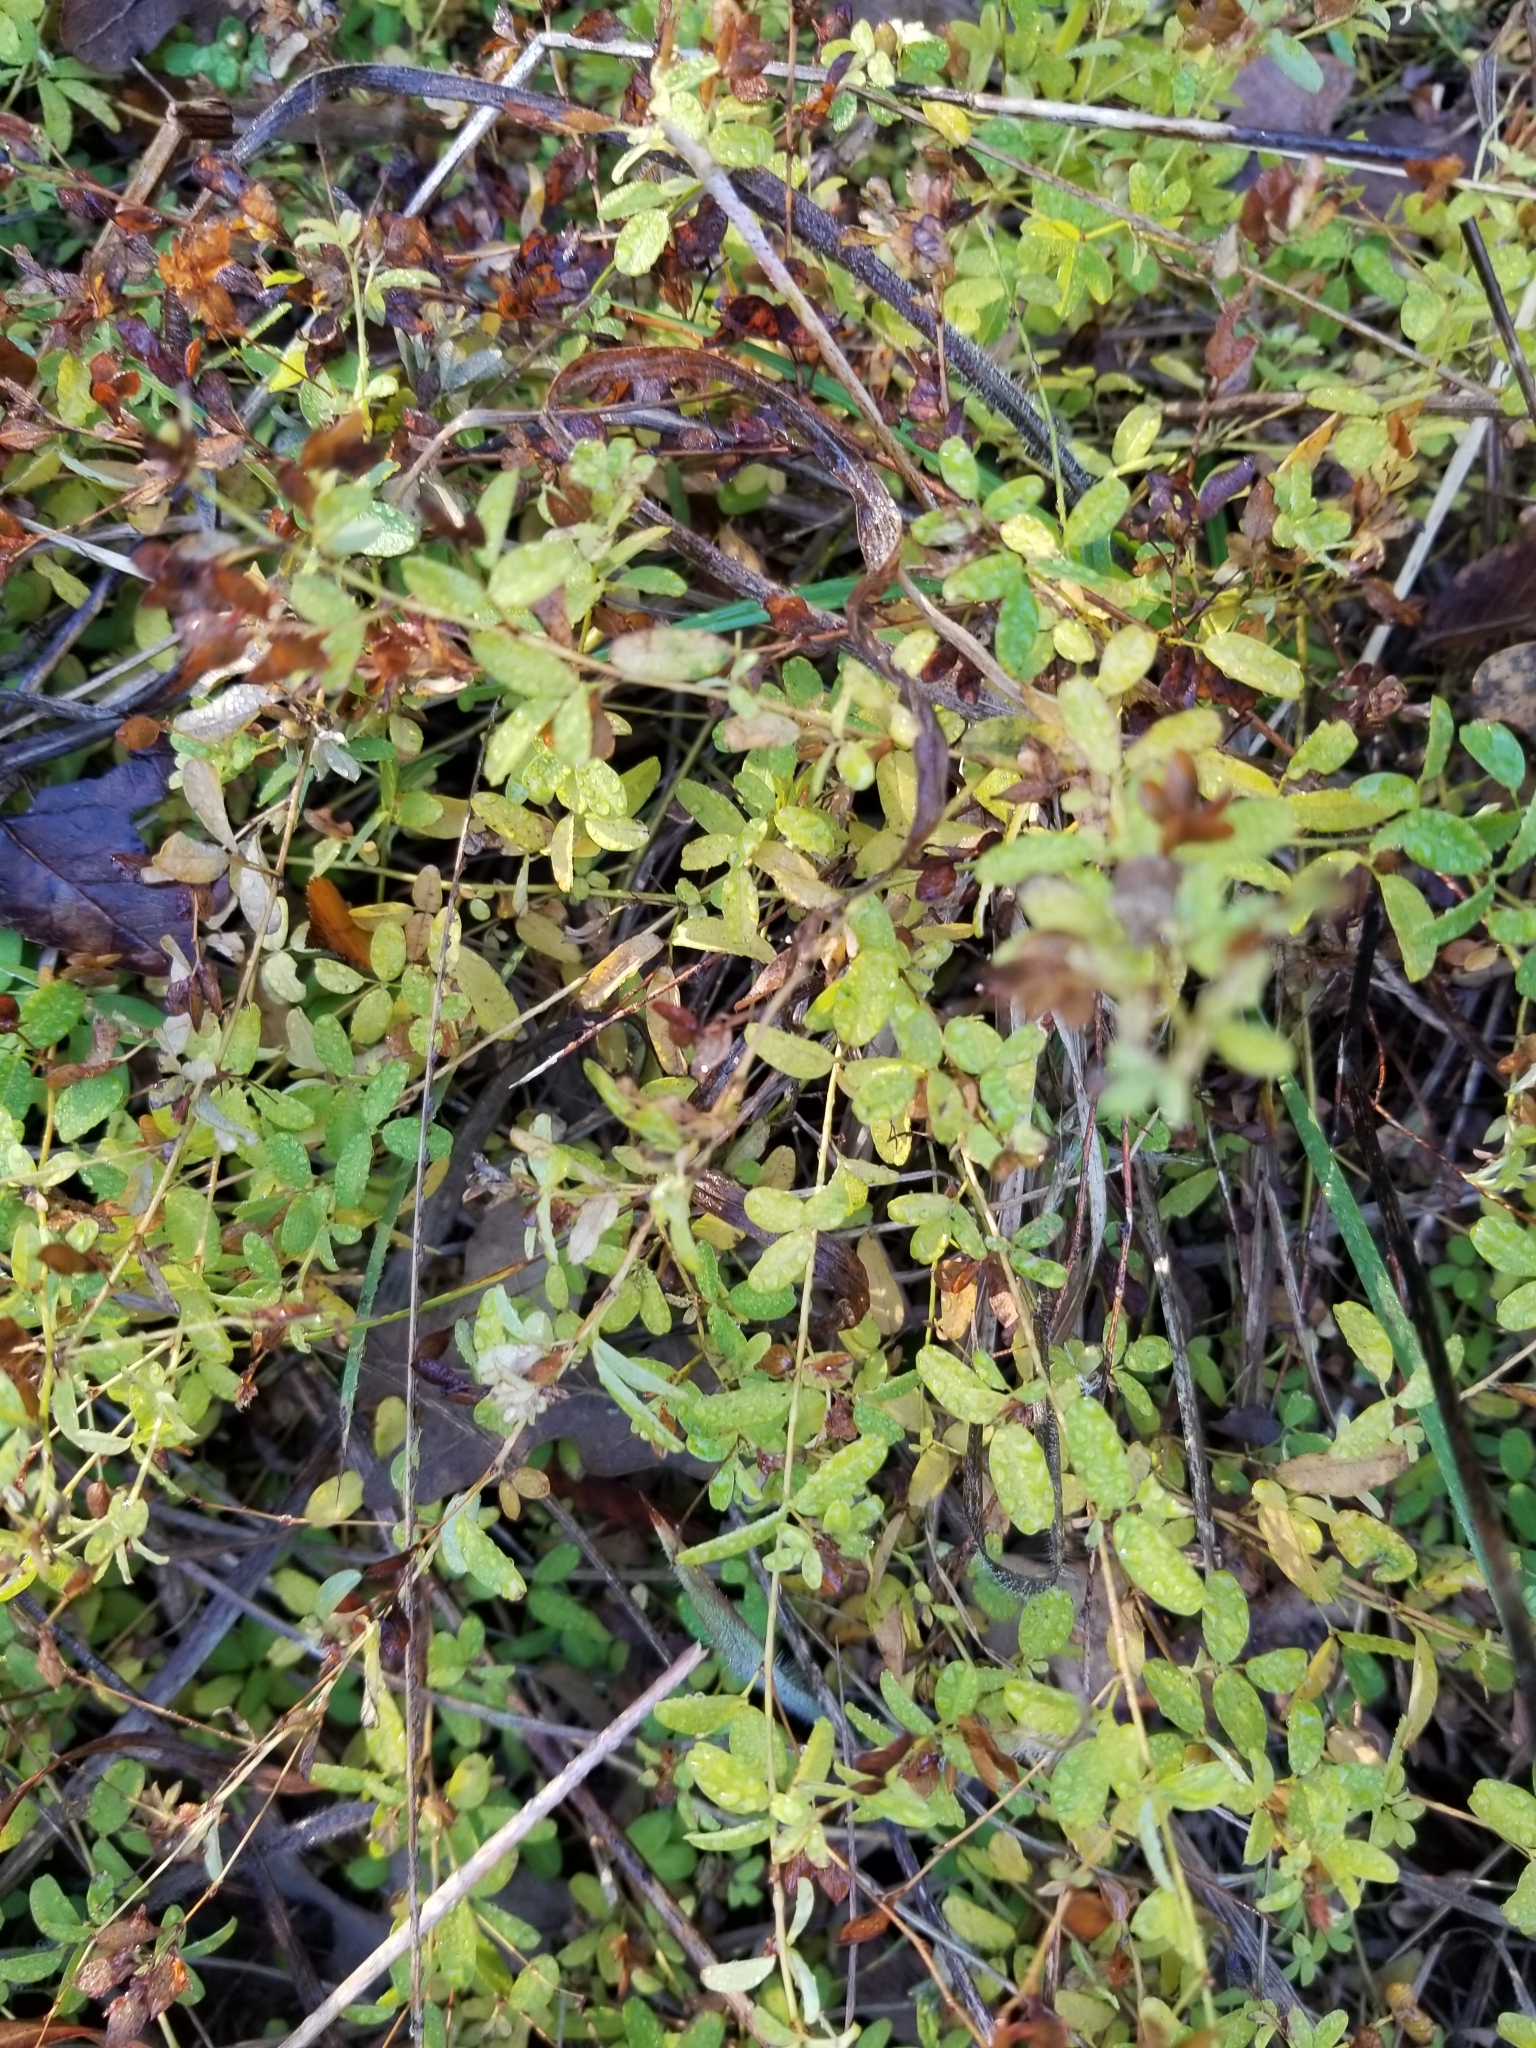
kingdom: Plantae
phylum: Tracheophyta
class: Magnoliopsida
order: Malpighiales
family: Hypericaceae
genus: Hypericum
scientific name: Hypericum hypericoides
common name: St. andrew's cross
